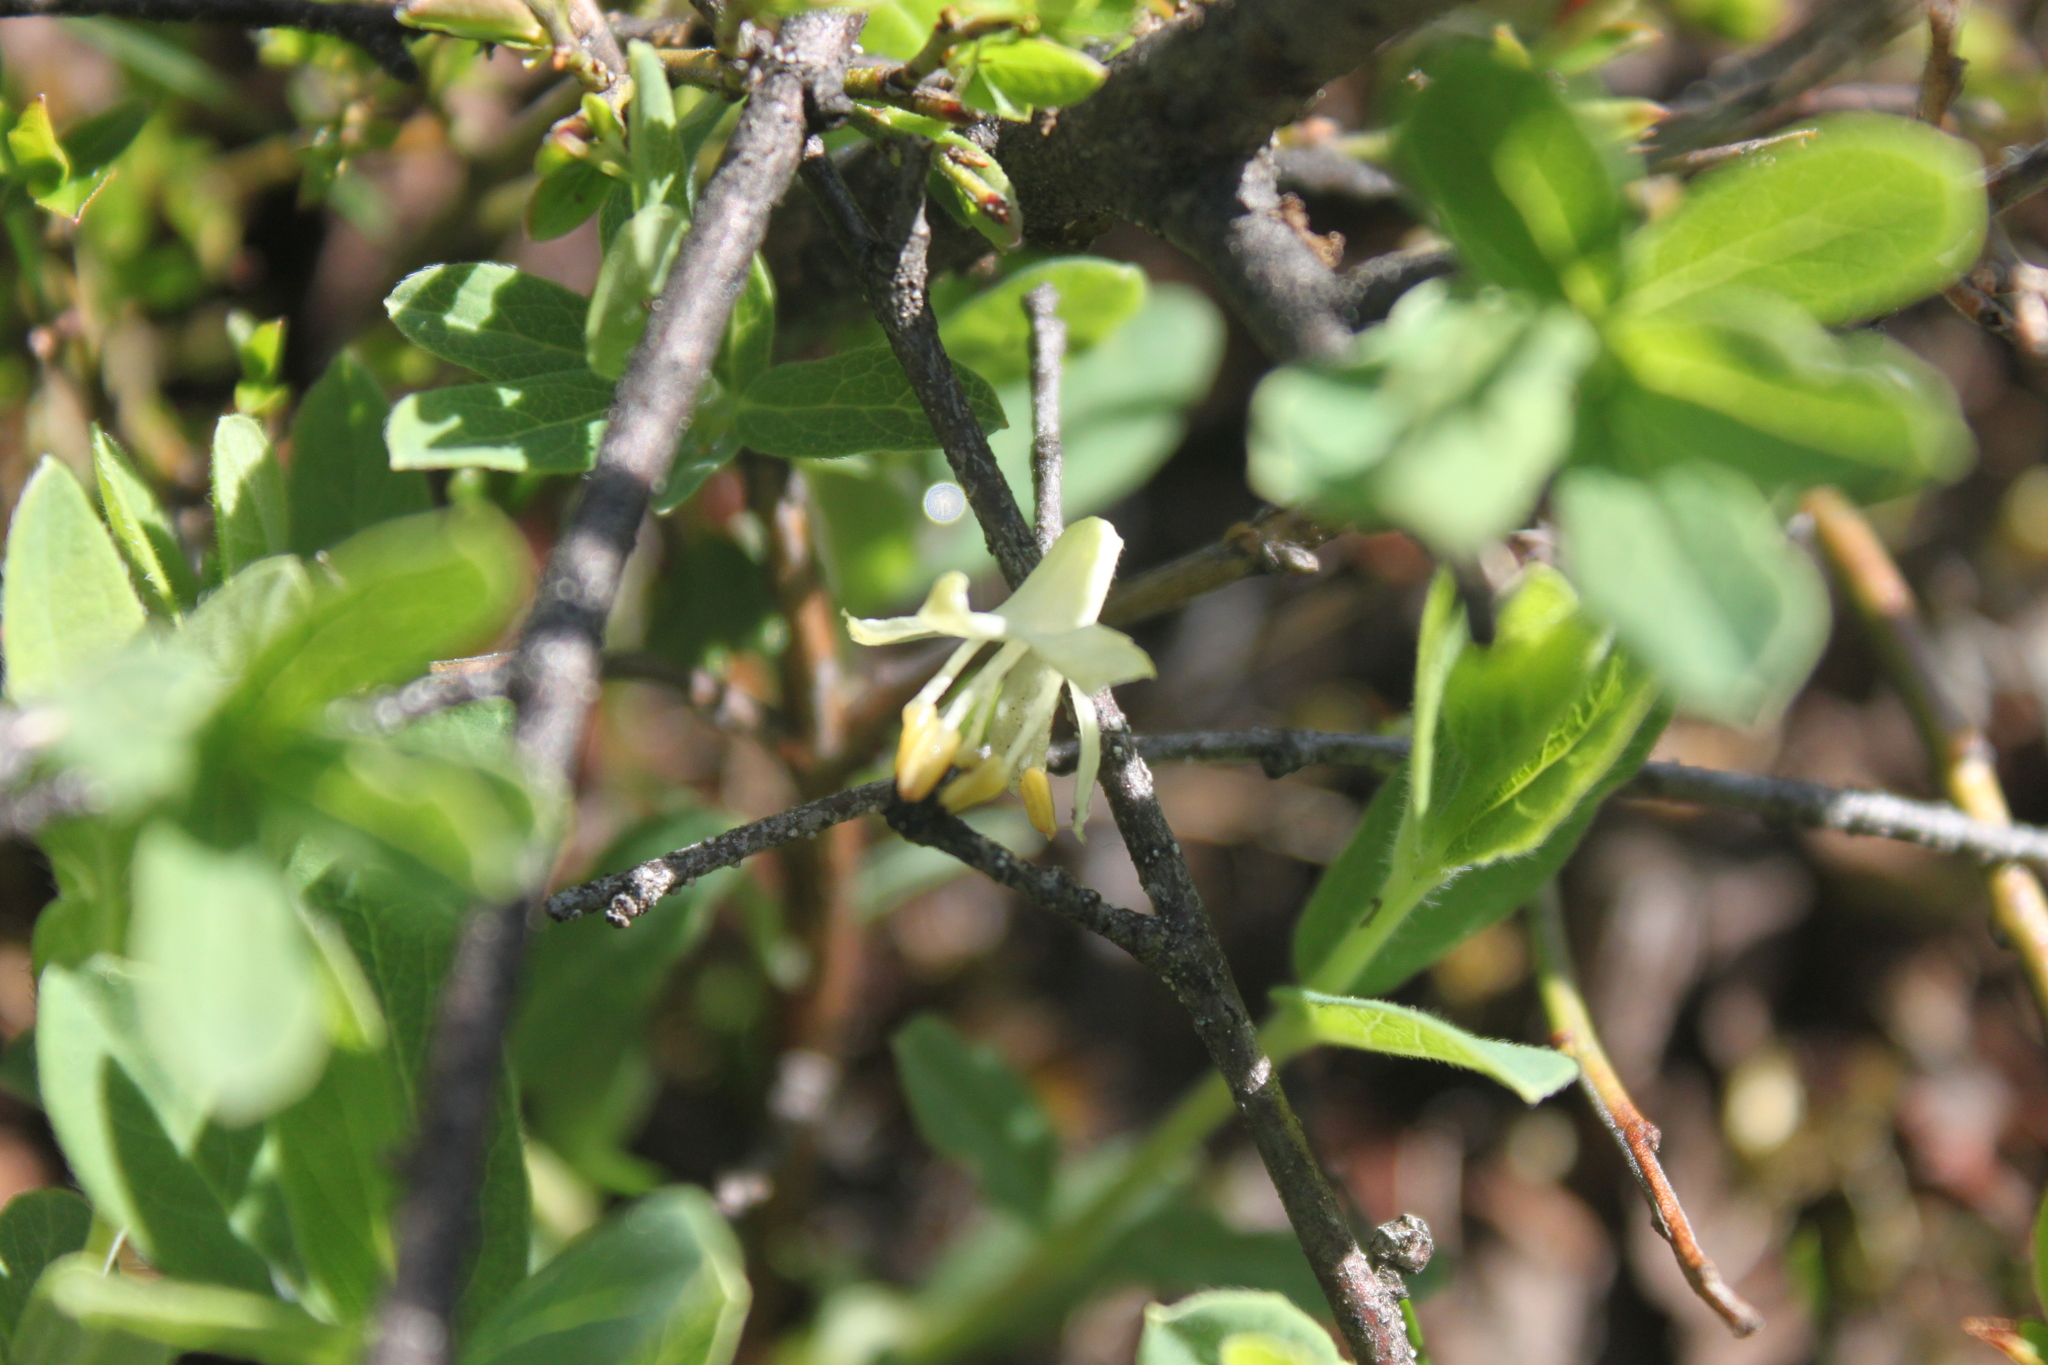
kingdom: Plantae
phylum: Tracheophyta
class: Magnoliopsida
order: Dipsacales
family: Caprifoliaceae
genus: Lonicera
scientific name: Lonicera villosa
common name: Mountain fly-honeysuckle
